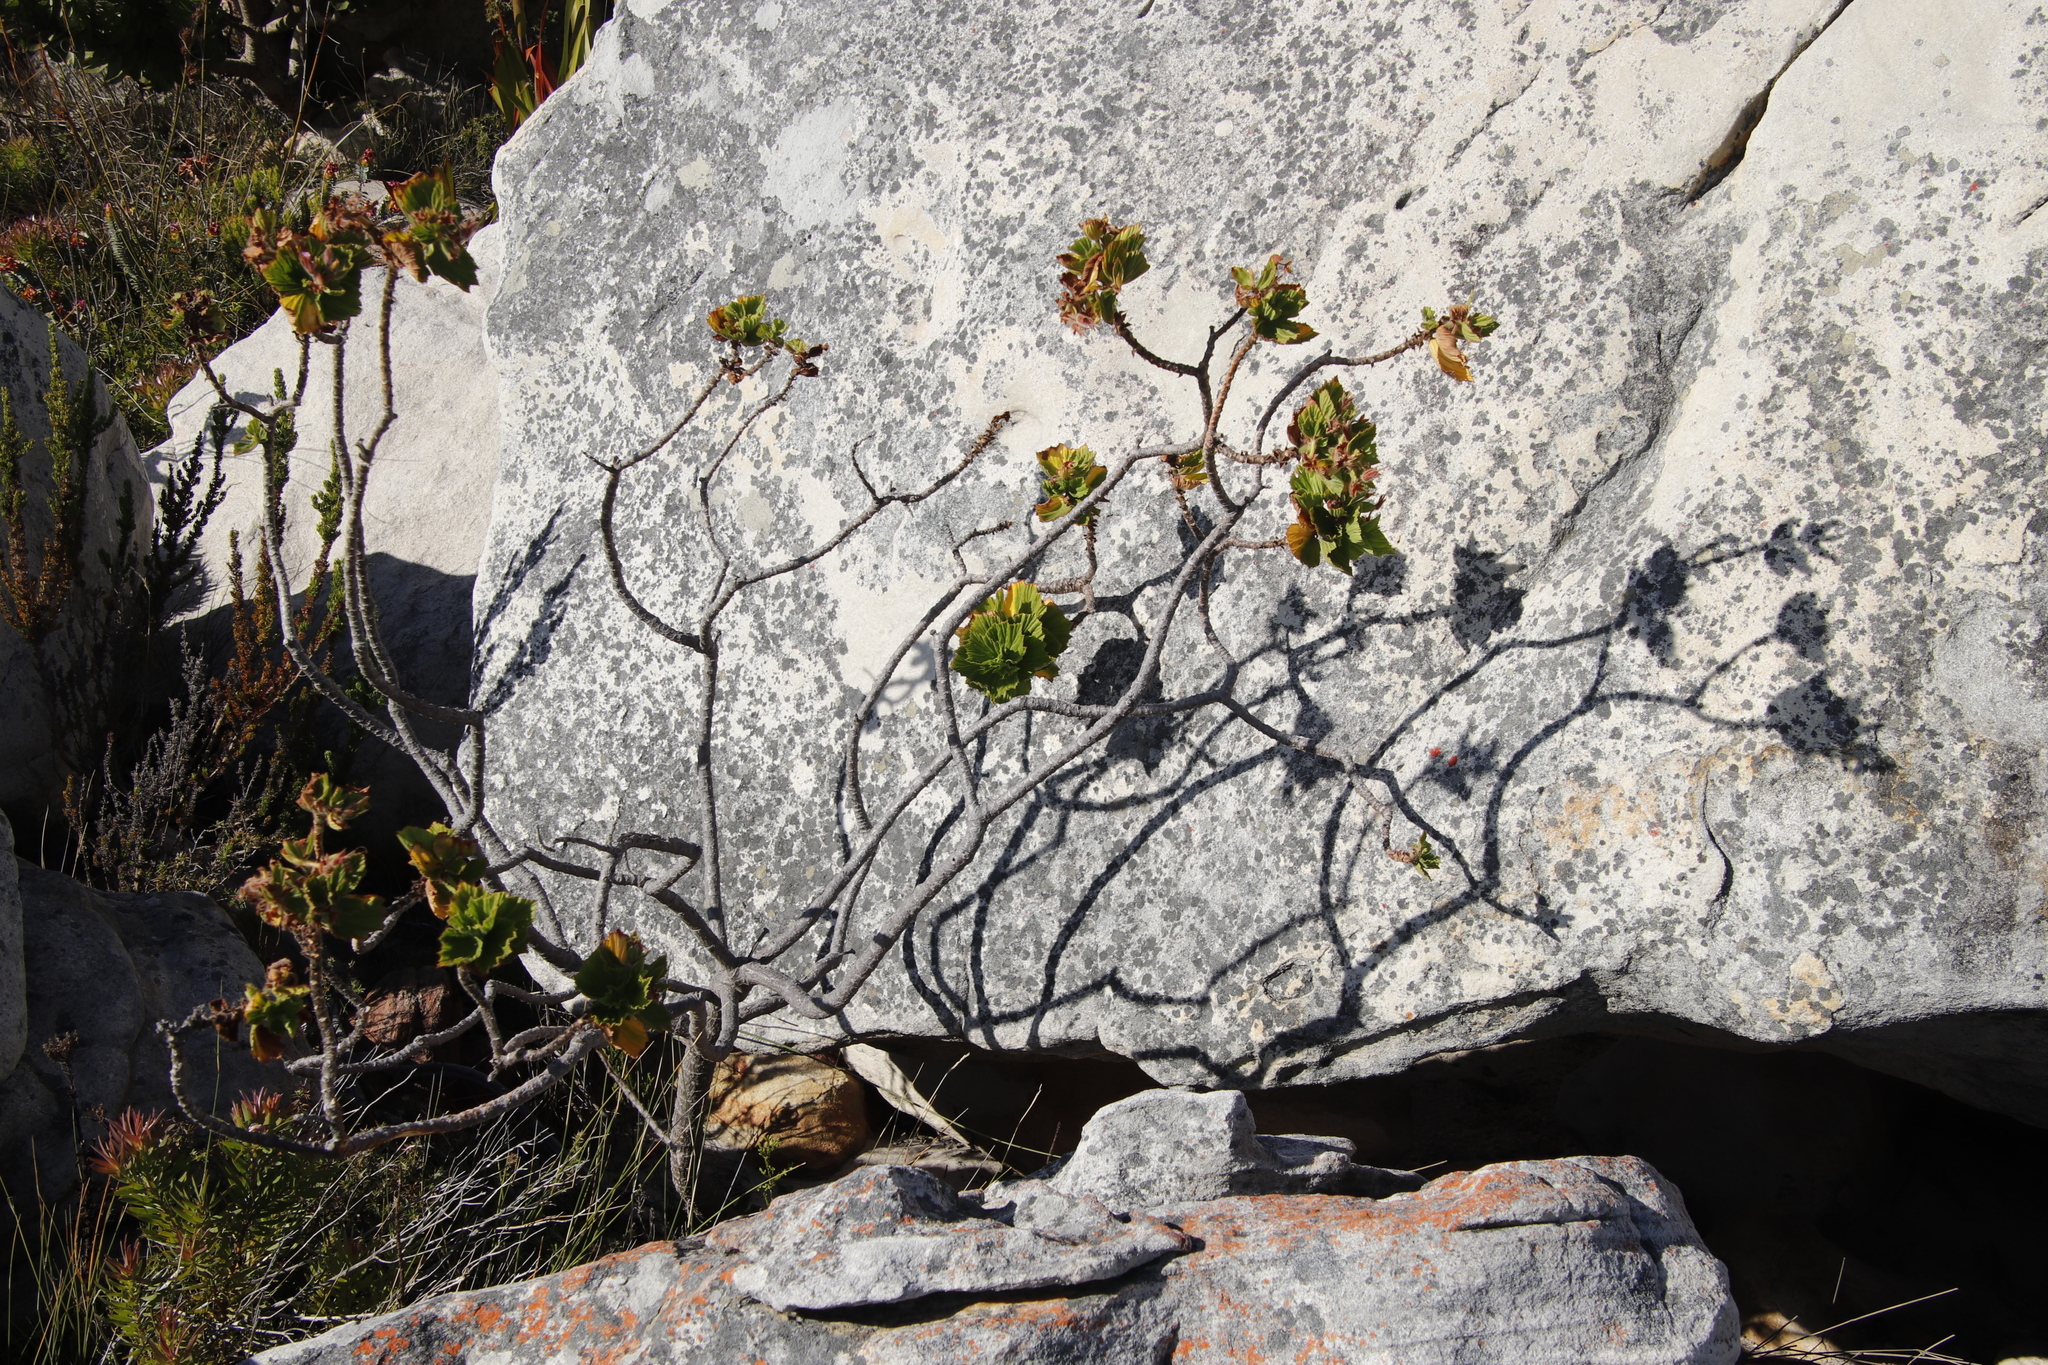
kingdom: Plantae
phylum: Tracheophyta
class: Magnoliopsida
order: Geraniales
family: Geraniaceae
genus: Pelargonium
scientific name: Pelargonium cucullatum
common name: Tree pelargonium
